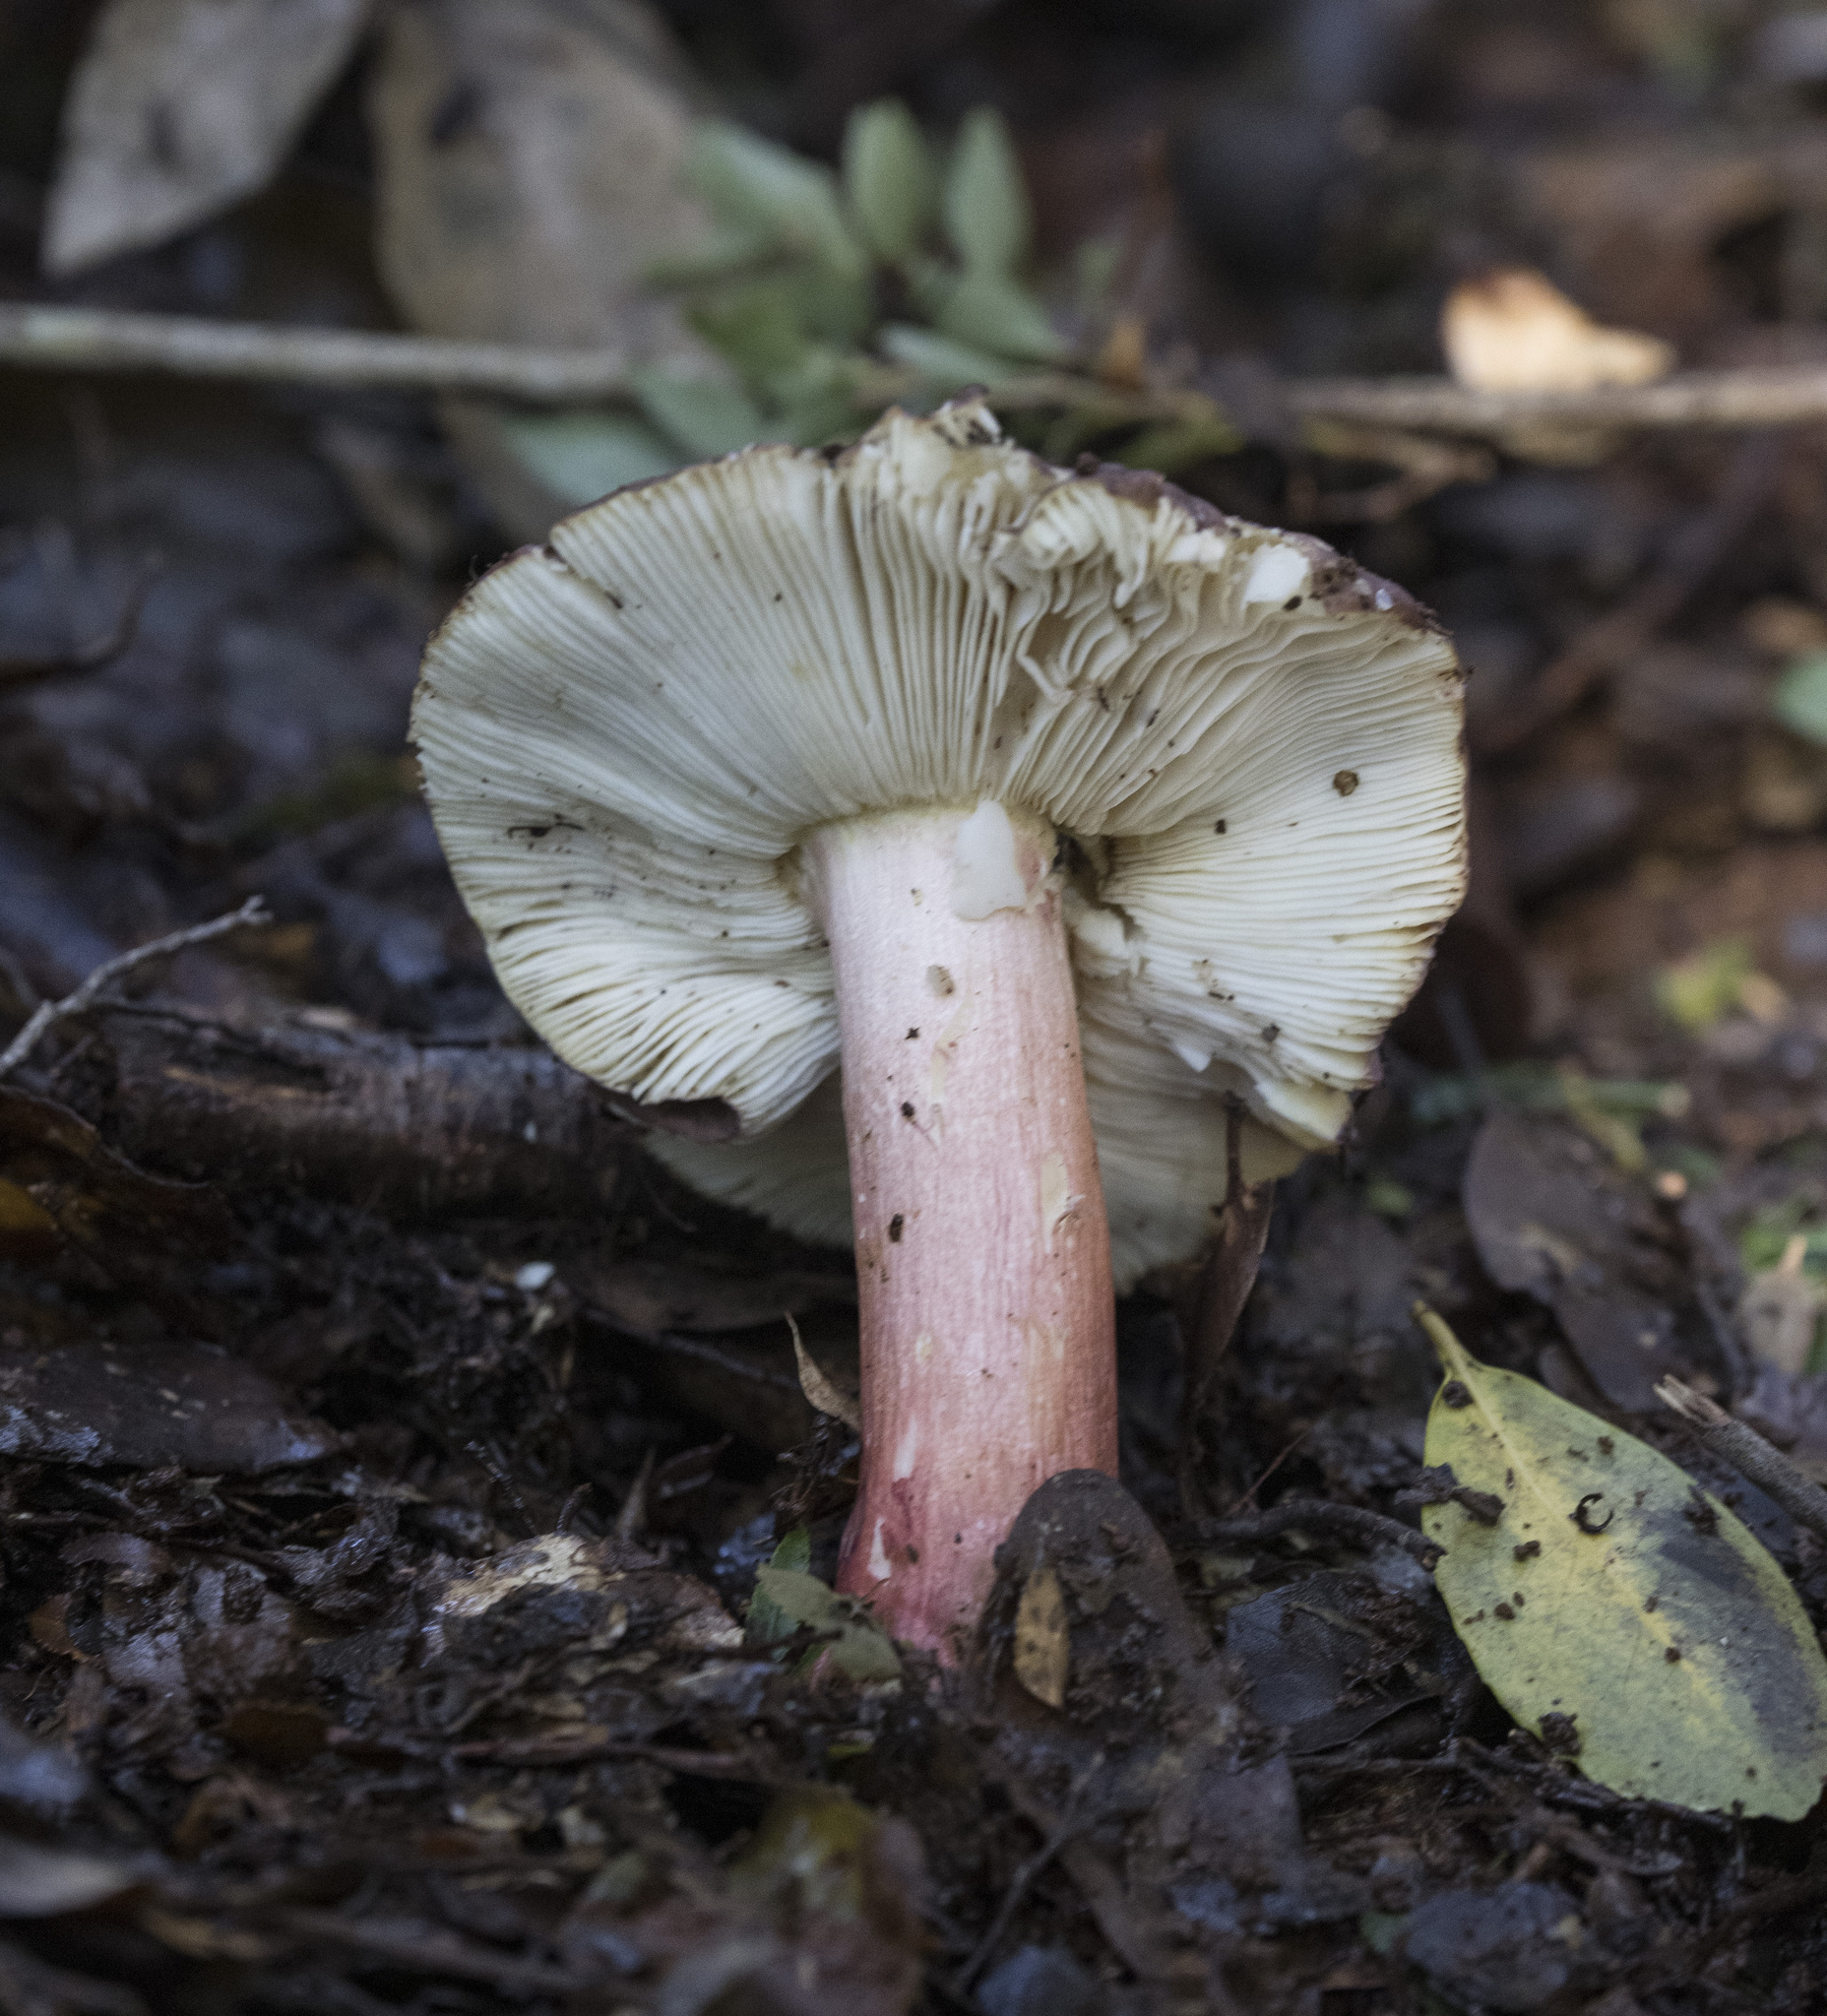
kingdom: Fungi
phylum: Basidiomycota
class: Agaricomycetes
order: Russulales
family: Russulaceae
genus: Russula
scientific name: Russula major
